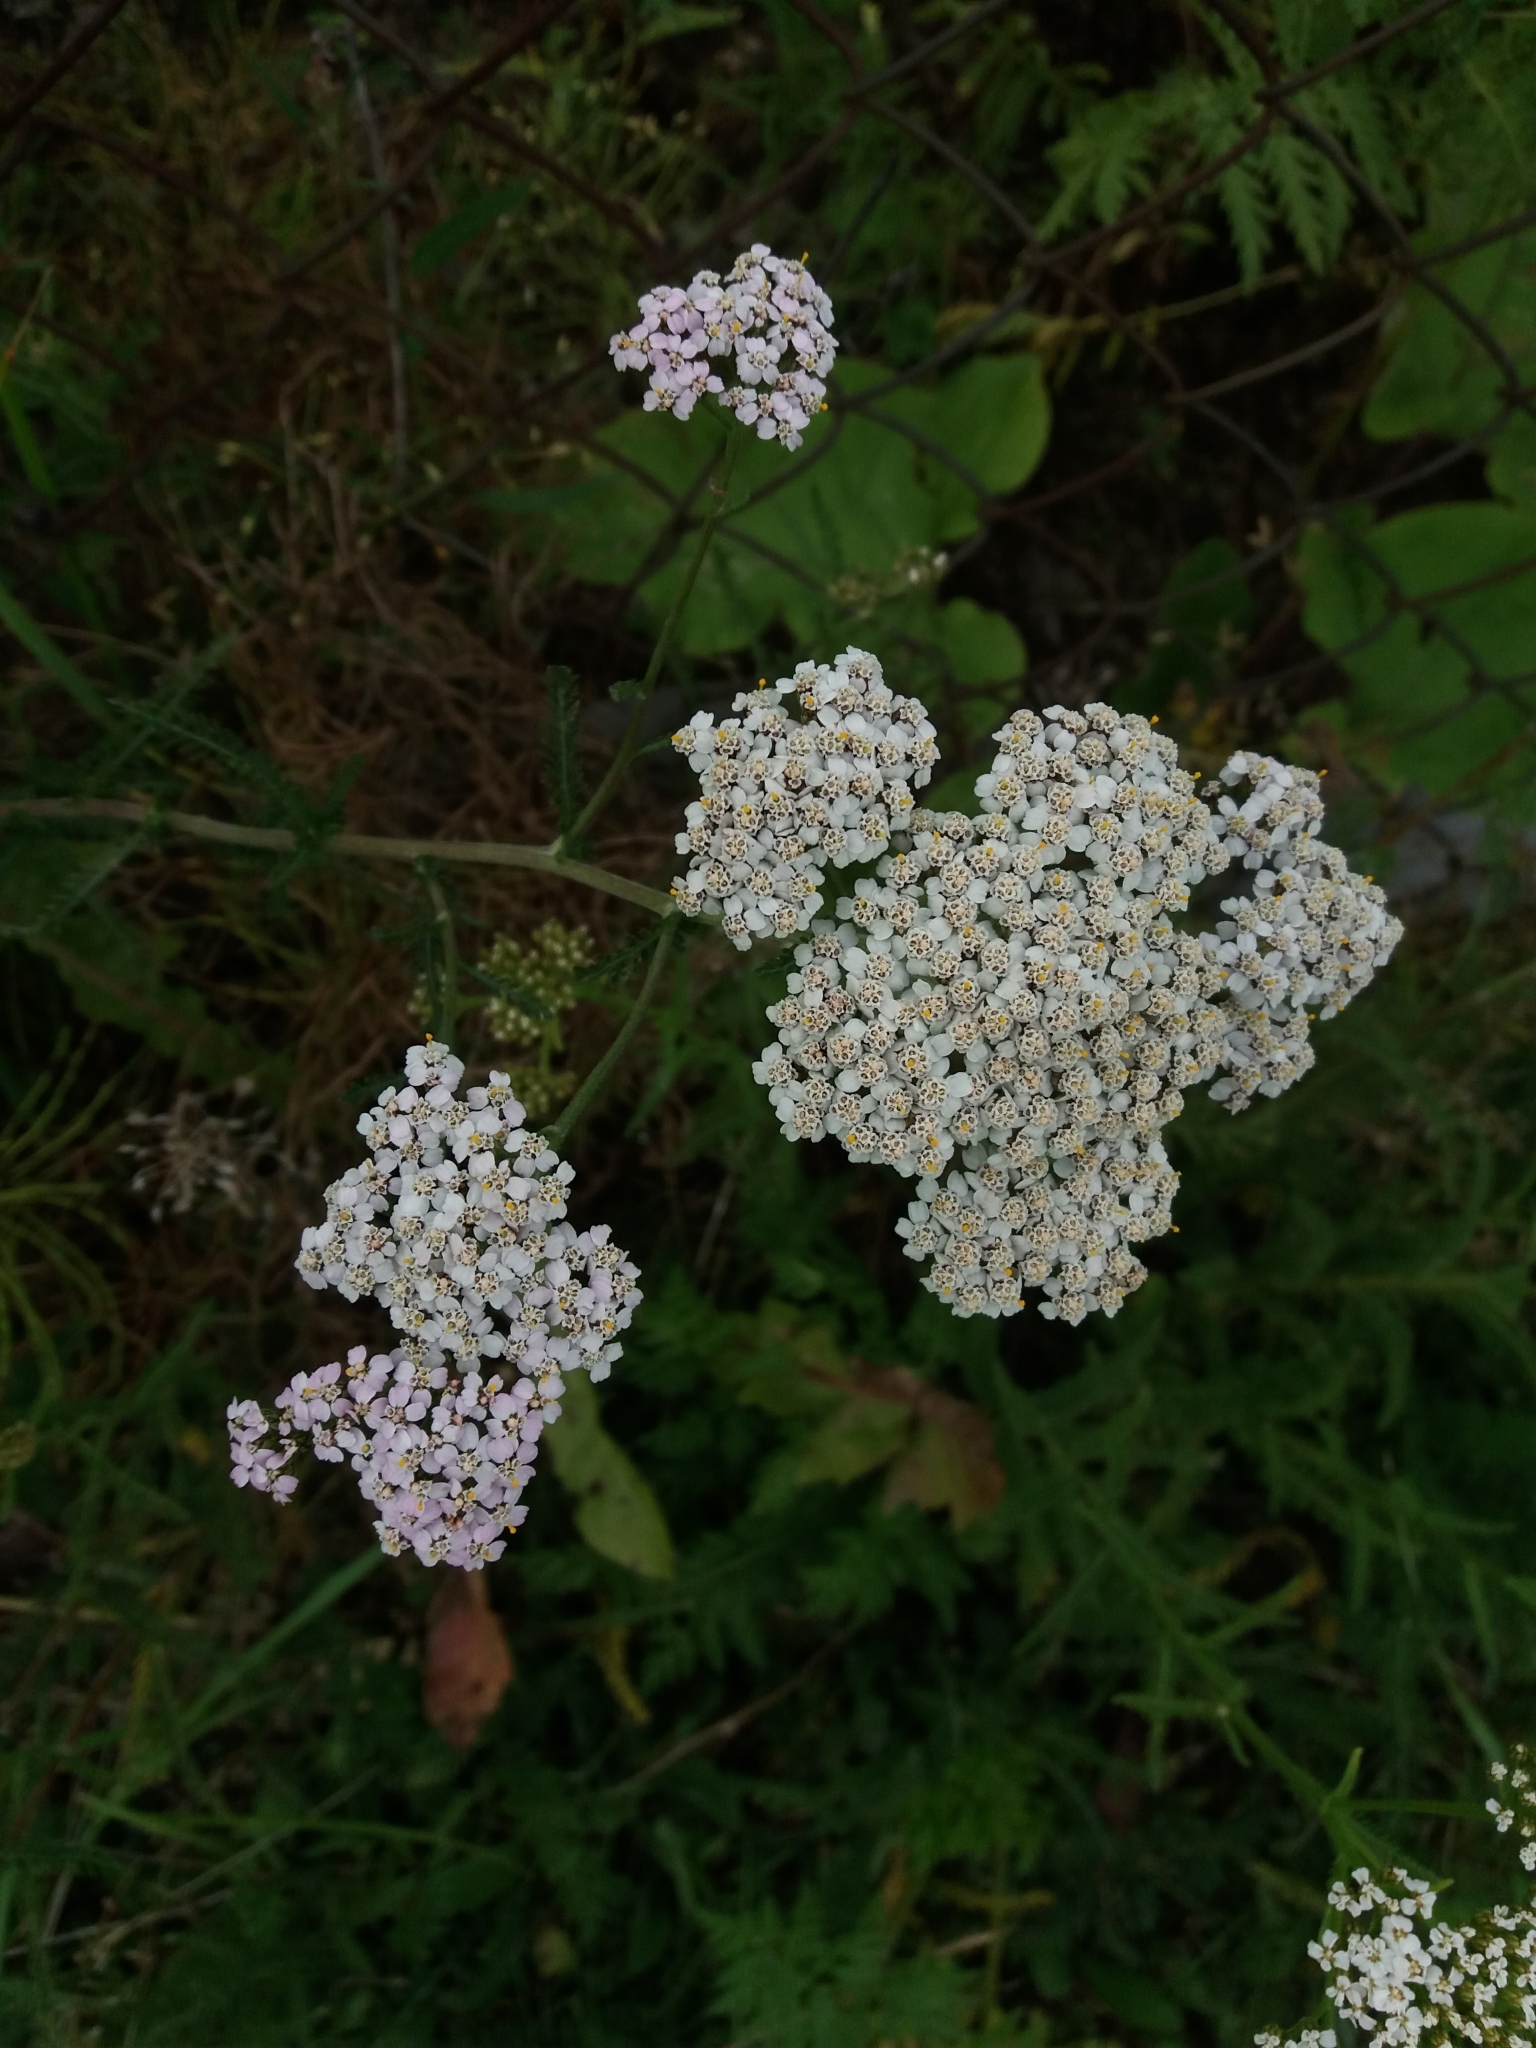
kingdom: Plantae
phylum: Tracheophyta
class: Magnoliopsida
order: Asterales
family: Asteraceae
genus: Achillea
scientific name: Achillea millefolium
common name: Yarrow
